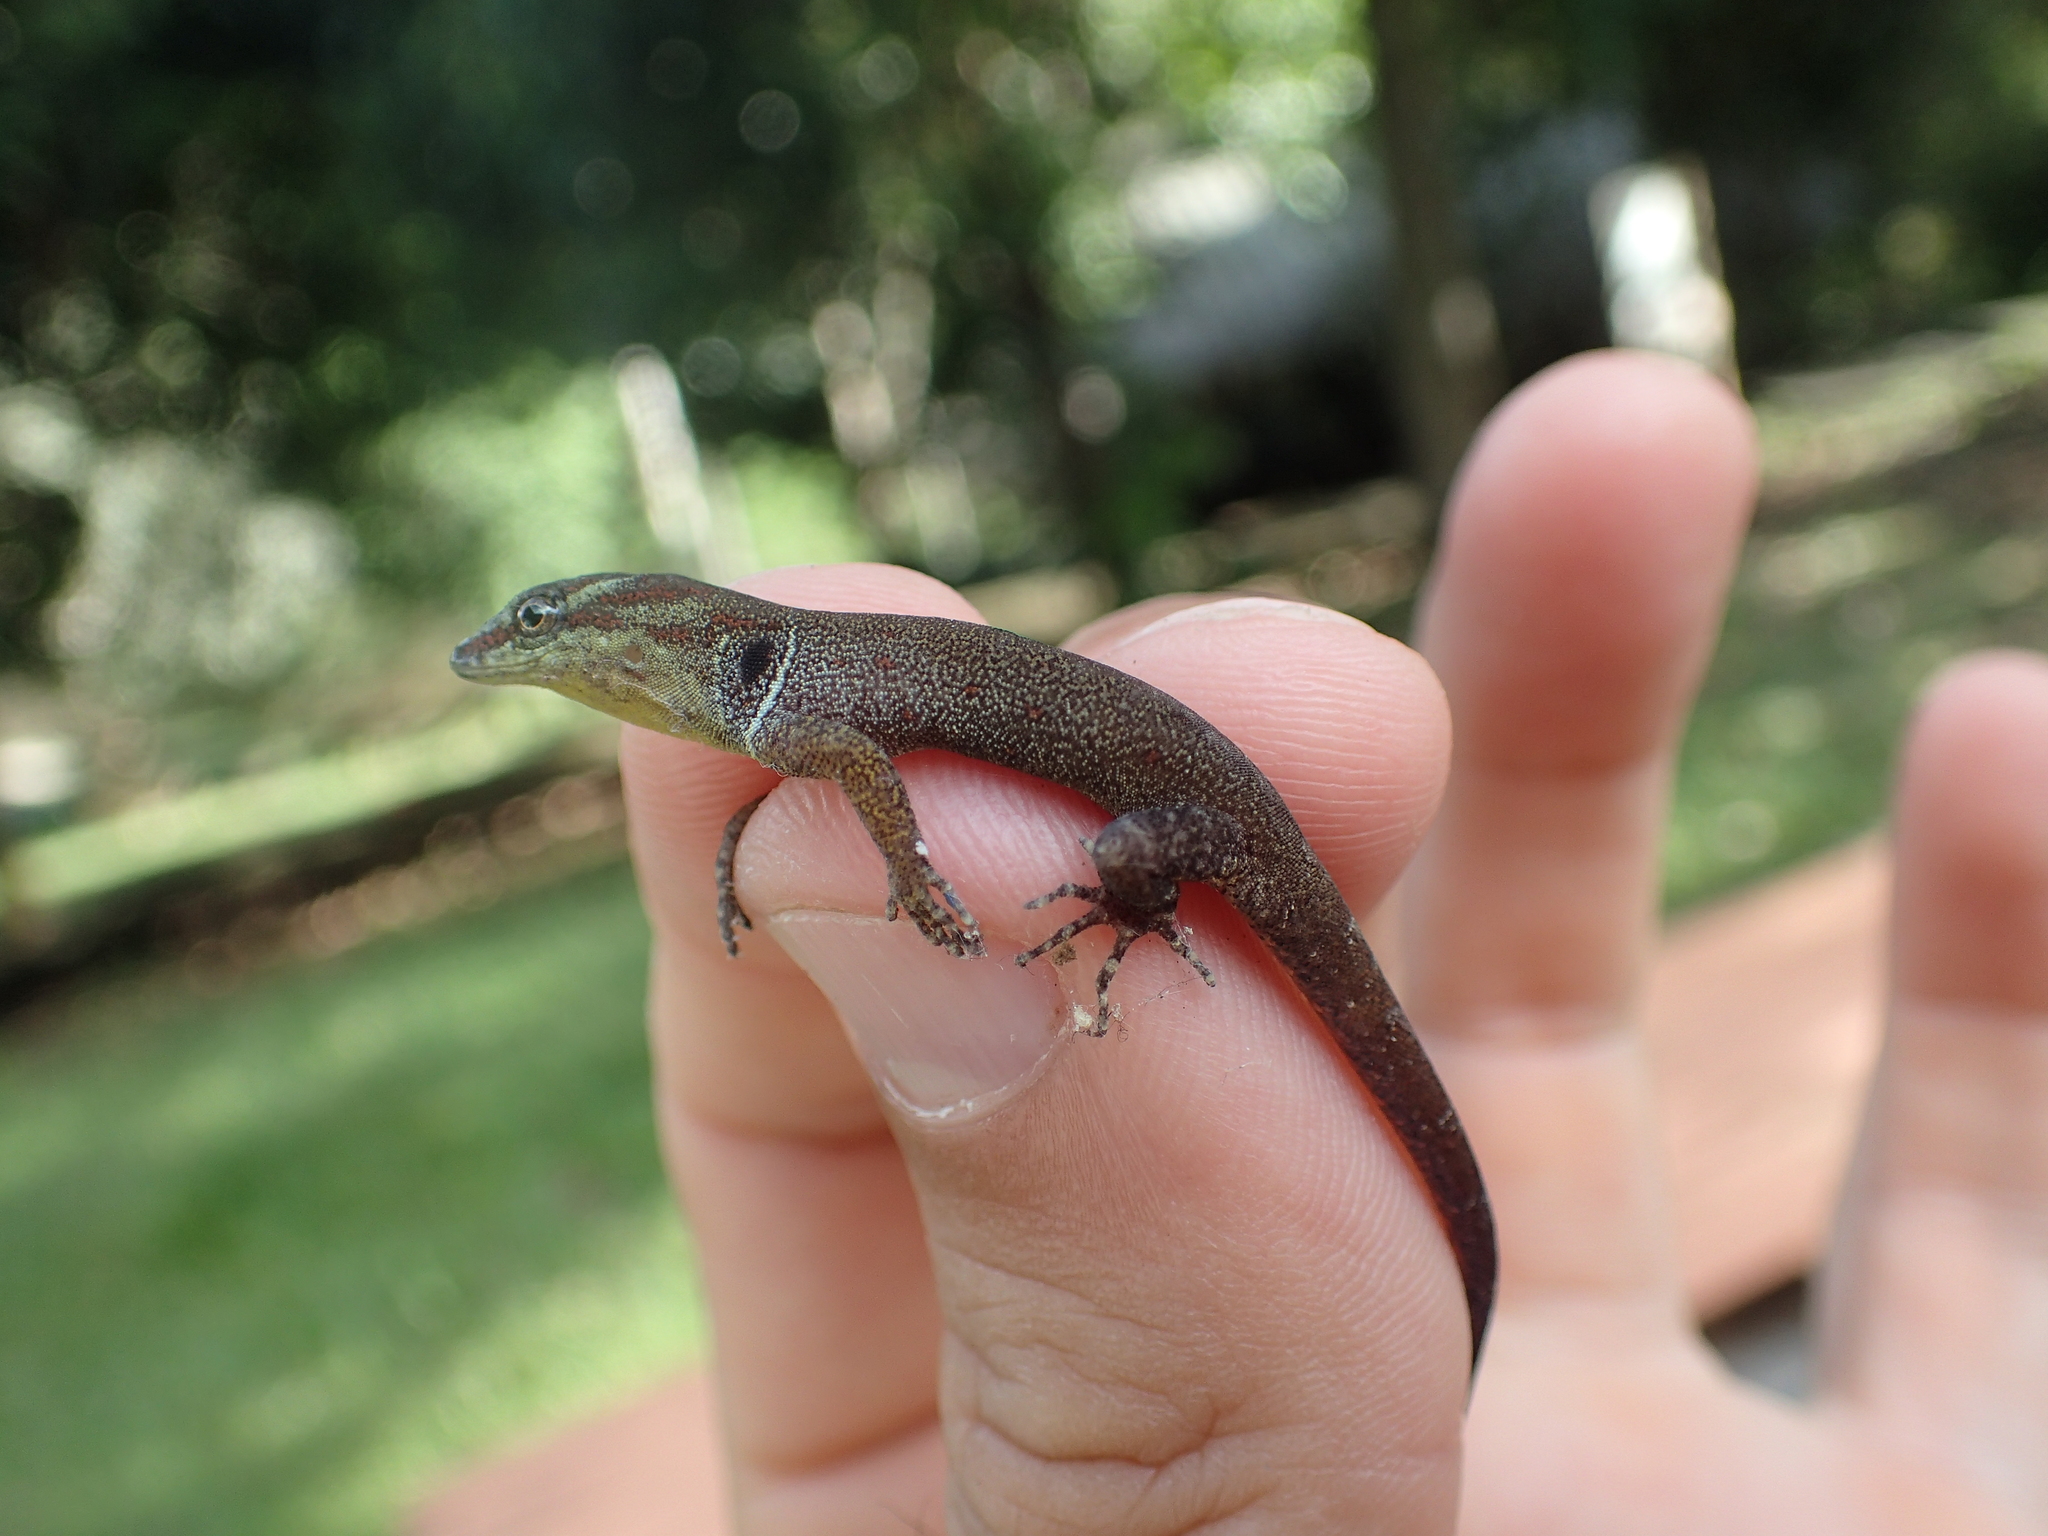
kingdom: Animalia
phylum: Chordata
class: Squamata
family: Sphaerodactylidae
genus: Gonatodes
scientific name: Gonatodes humeralis
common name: South american clawed gecko
